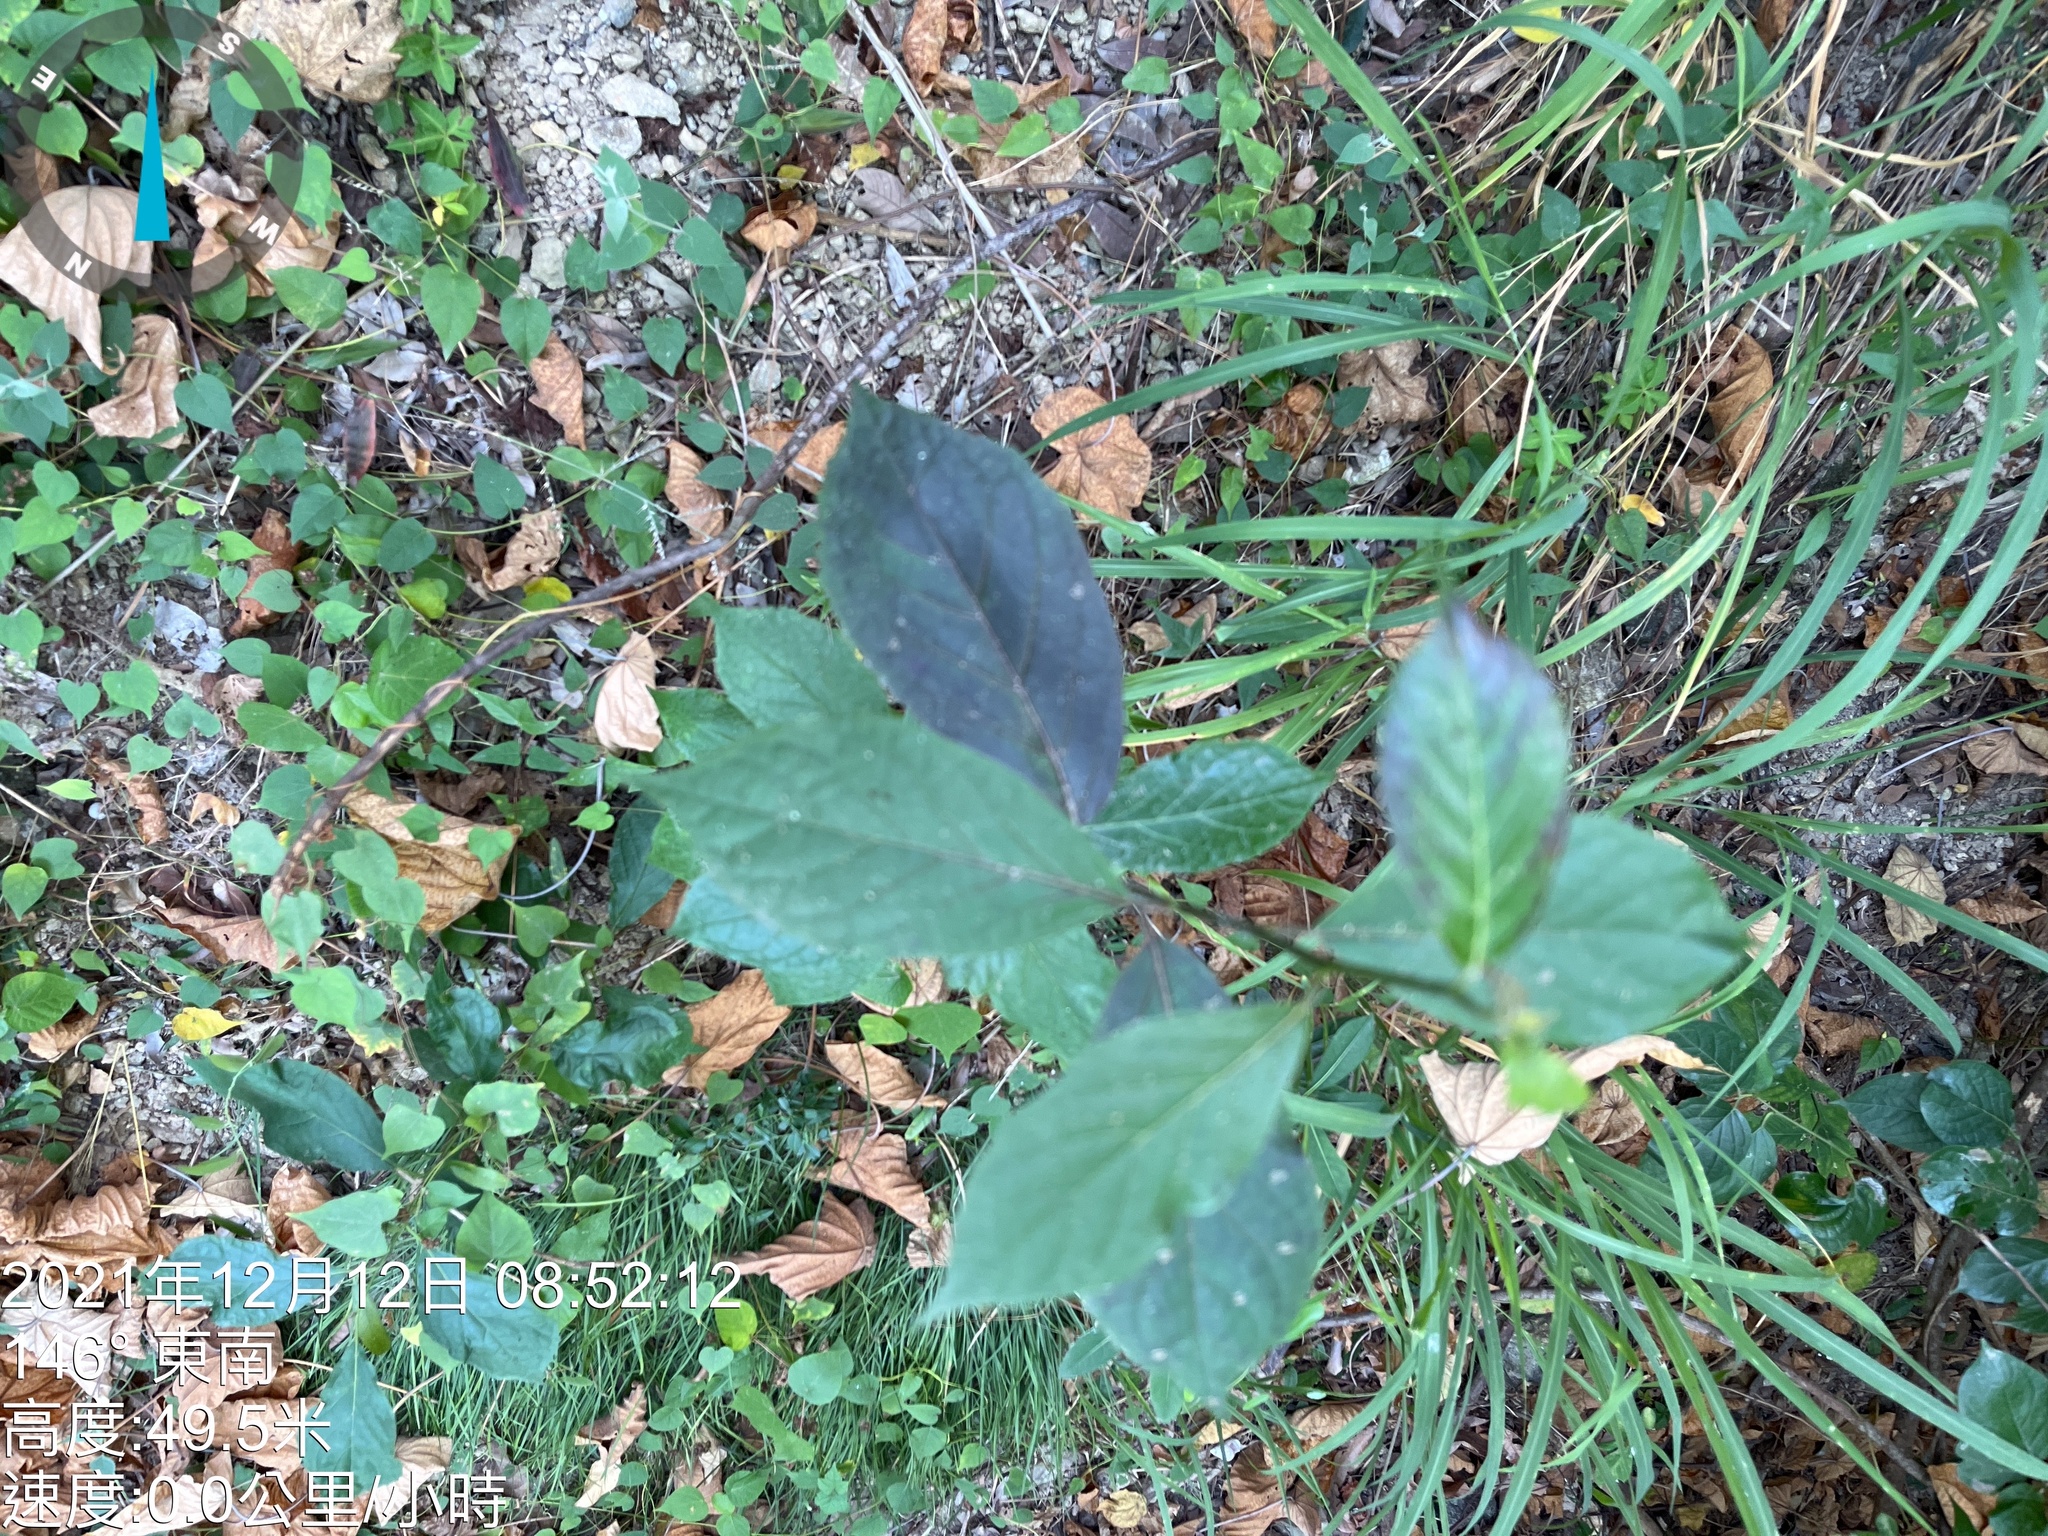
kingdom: Plantae
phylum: Tracheophyta
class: Magnoliopsida
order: Asterales
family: Asteraceae
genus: Blumea
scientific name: Blumea megacephala
